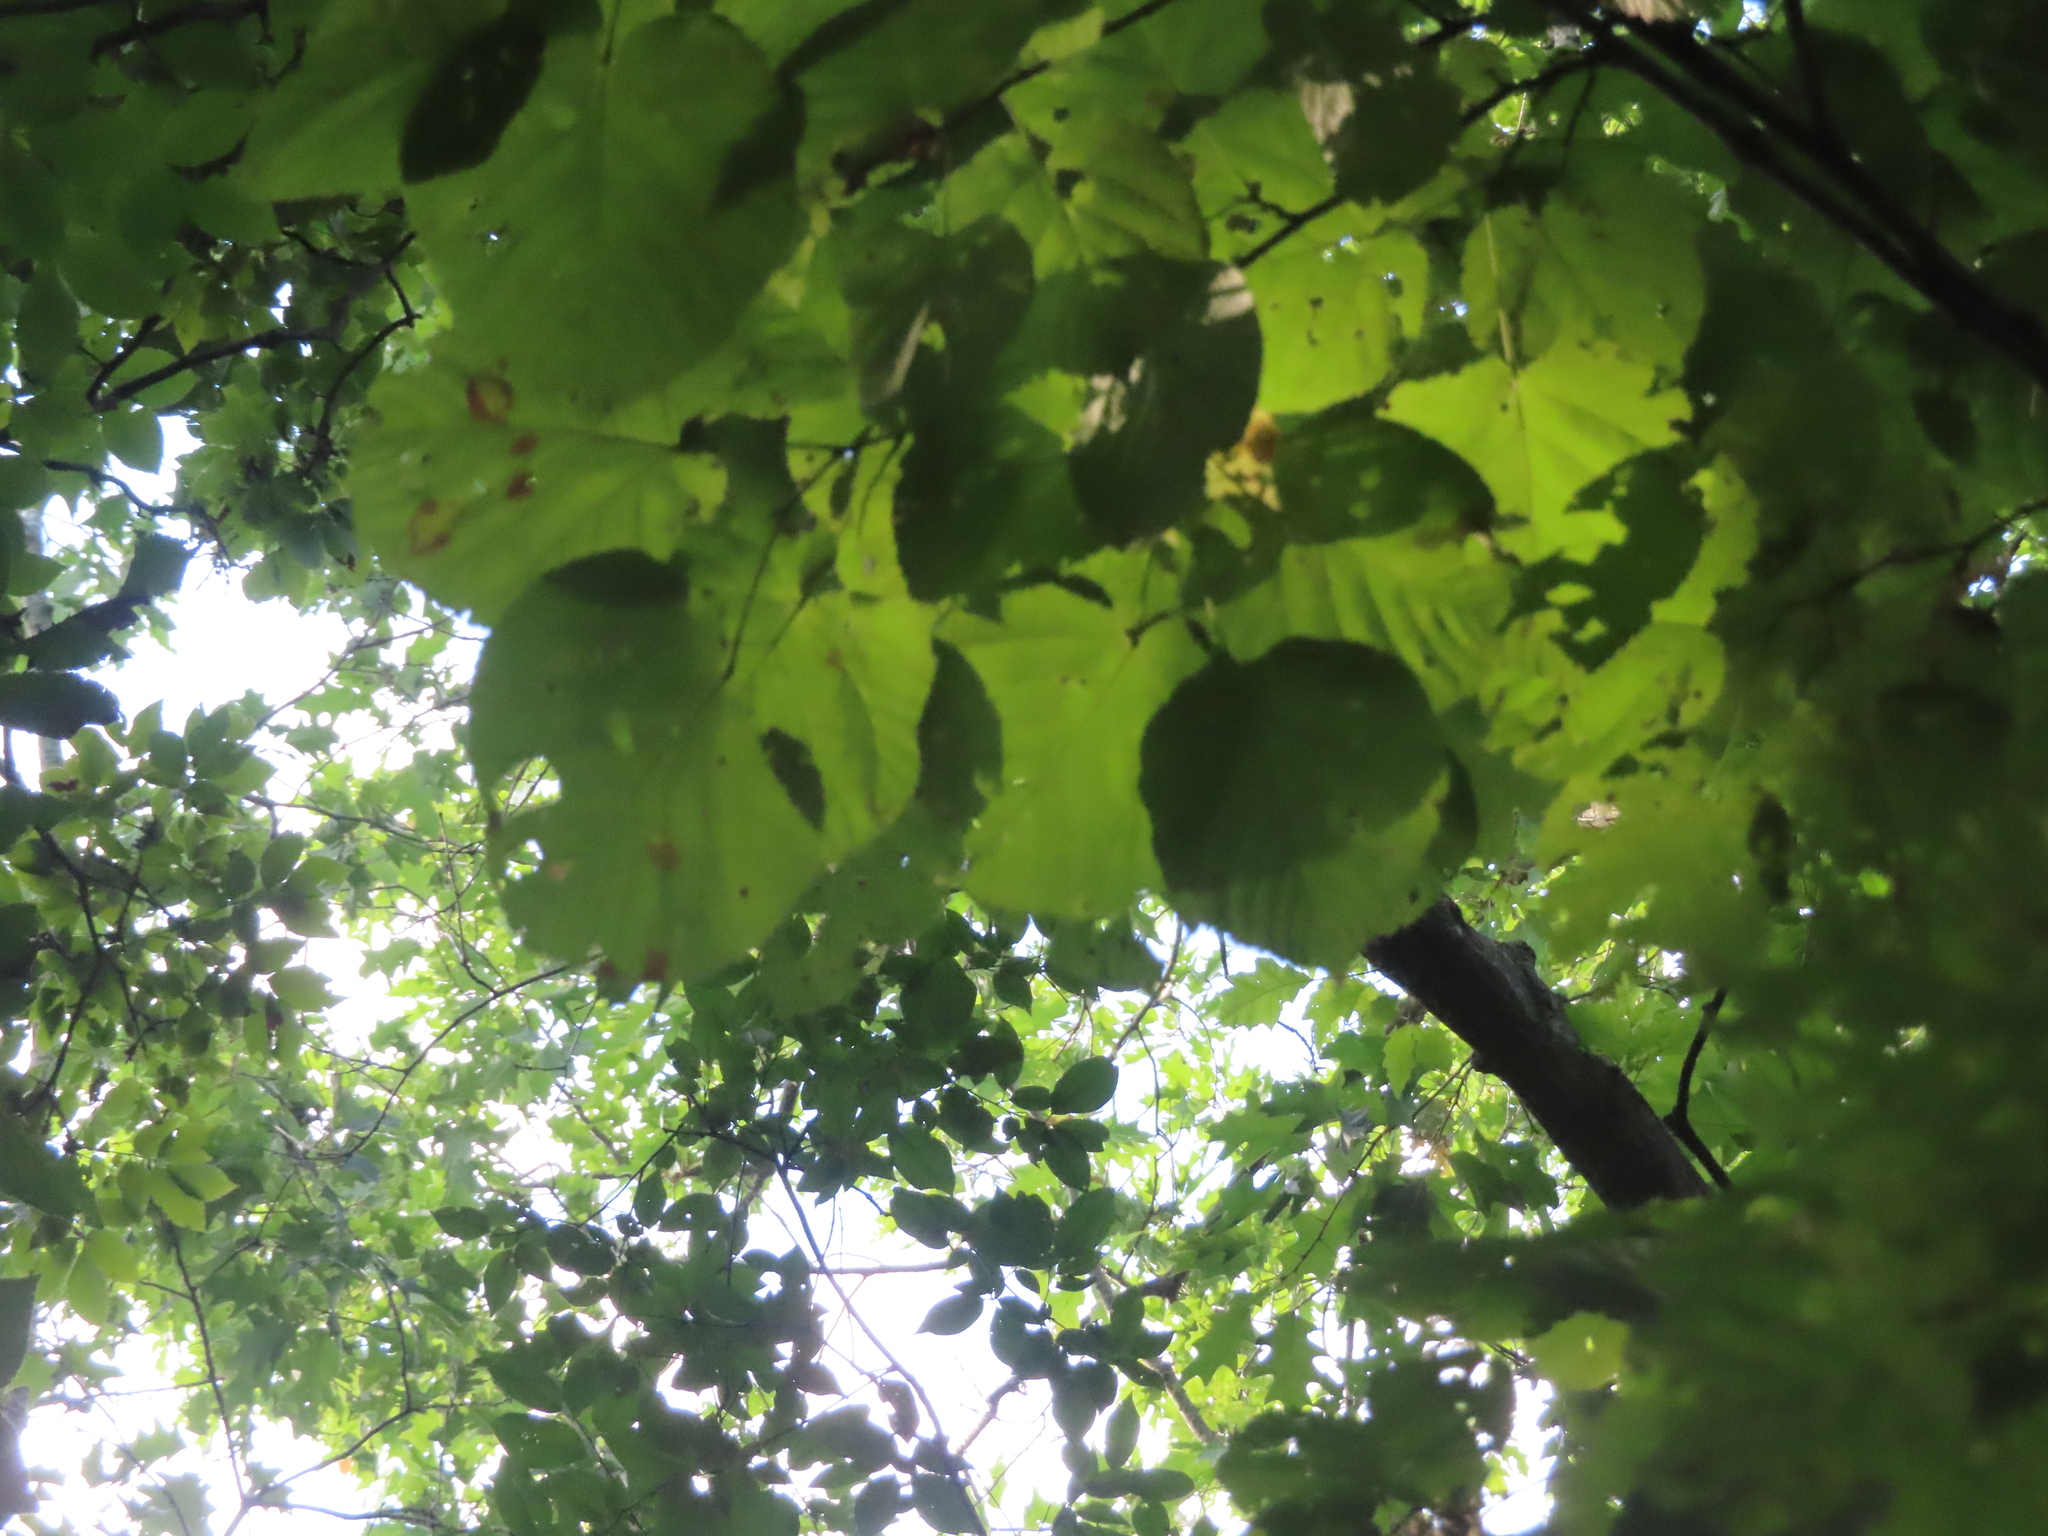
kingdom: Plantae
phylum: Tracheophyta
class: Magnoliopsida
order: Malvales
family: Malvaceae
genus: Tilia
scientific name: Tilia americana
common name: Basswood
